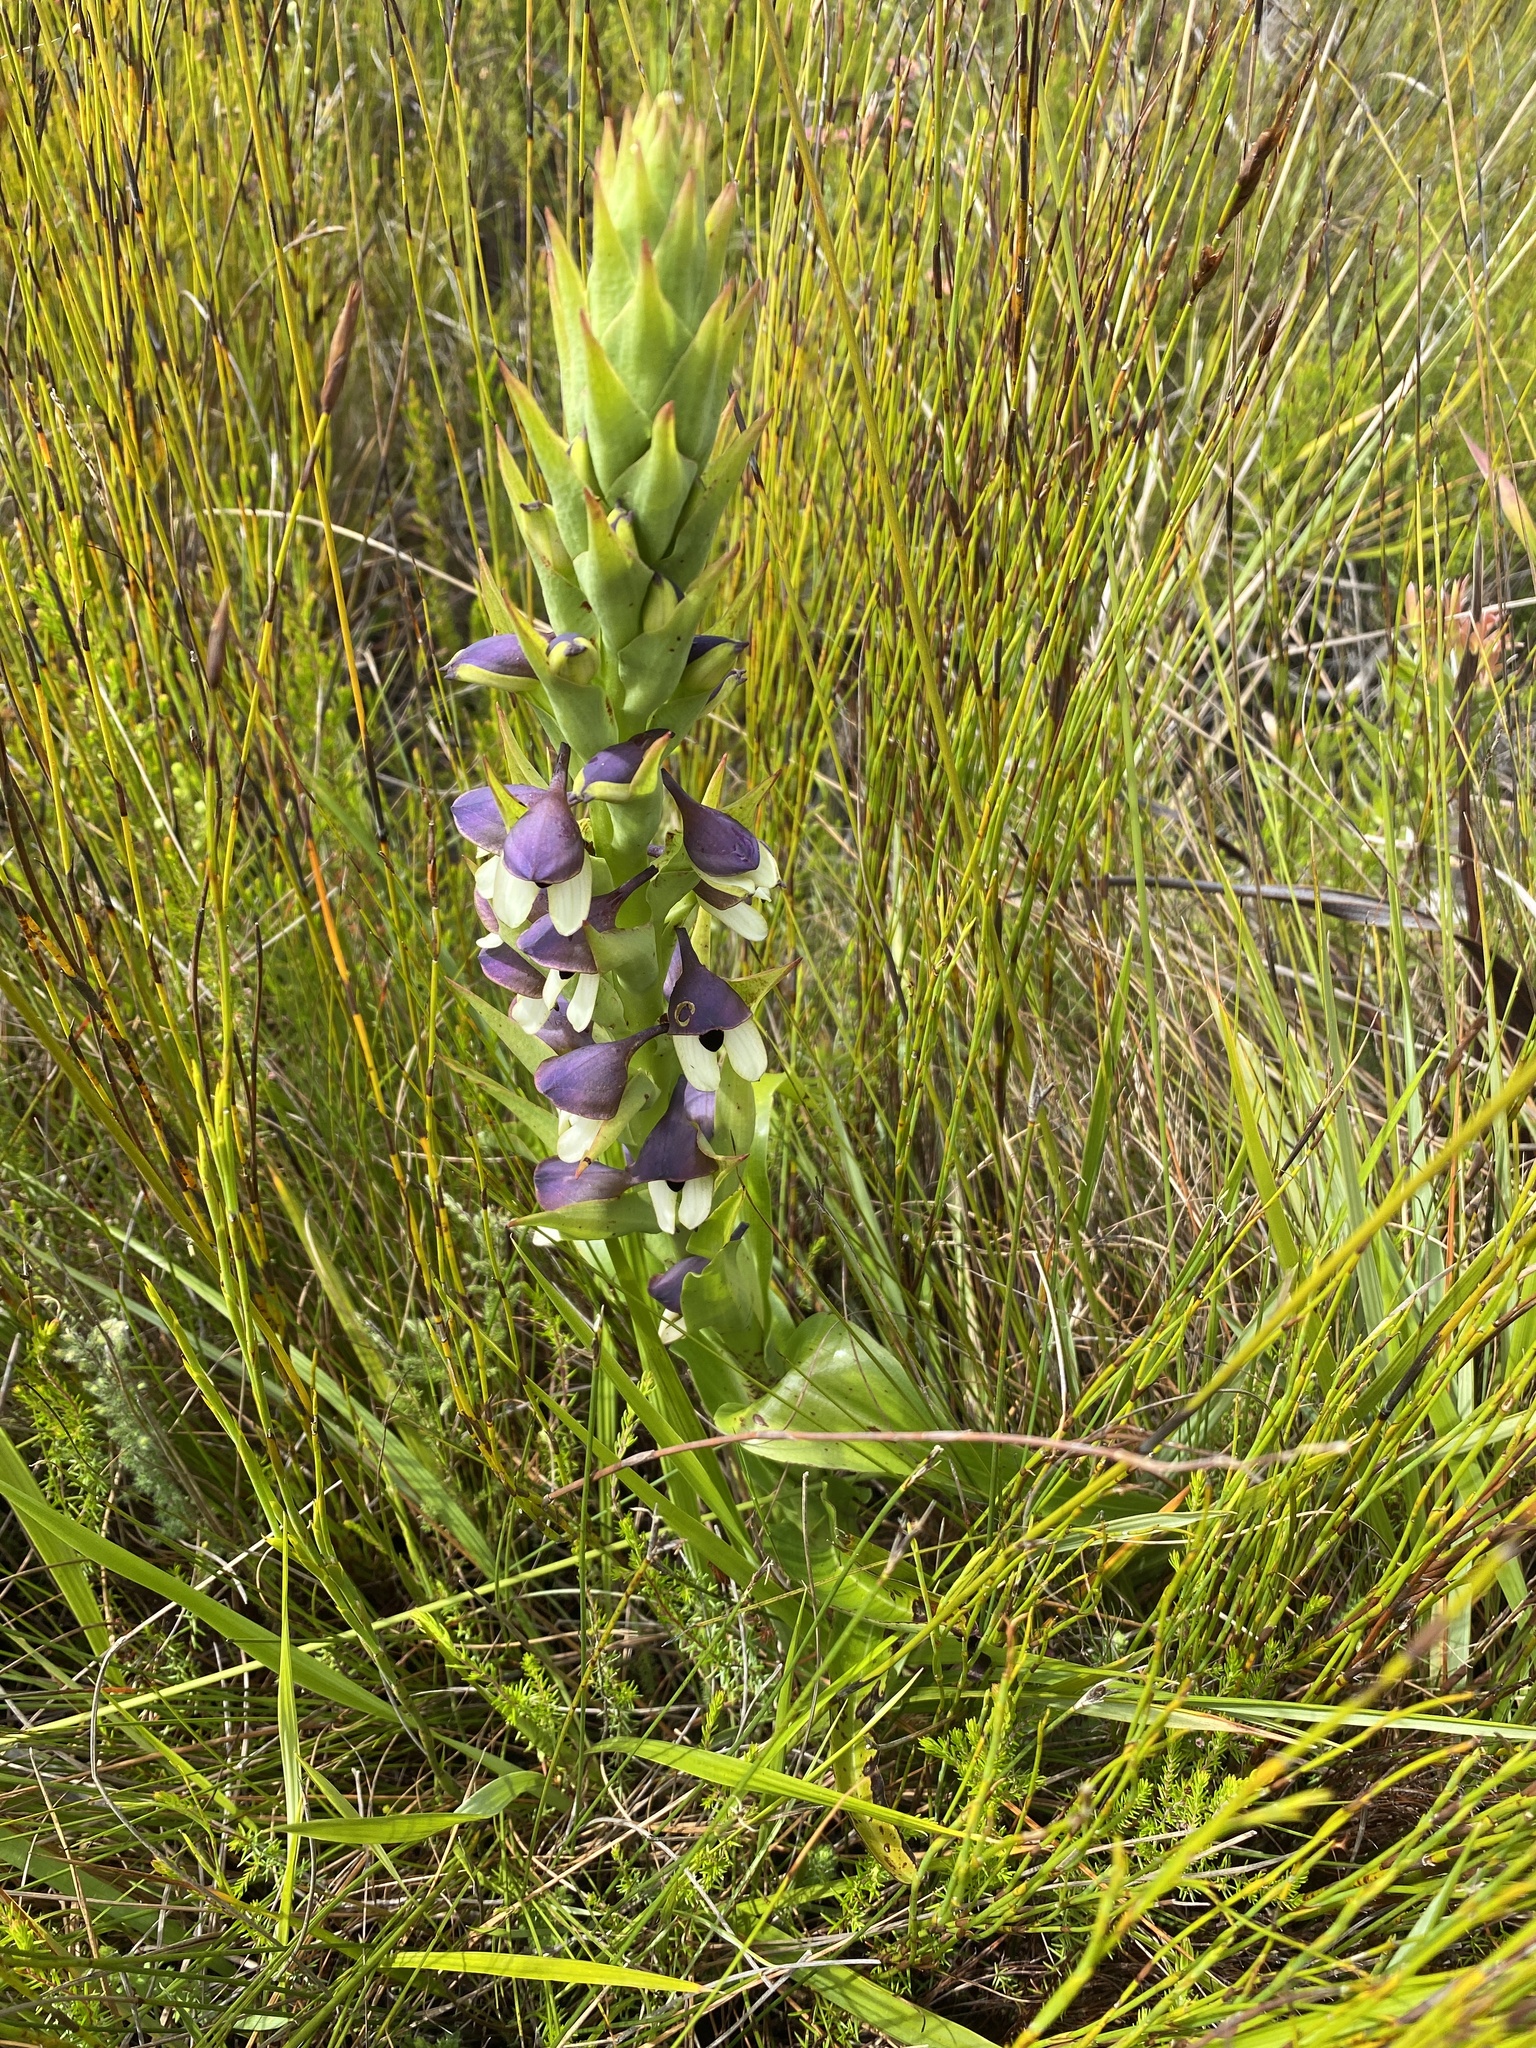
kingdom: Plantae
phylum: Tracheophyta
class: Liliopsida
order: Asparagales
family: Orchidaceae
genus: Disa
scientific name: Disa cornuta
